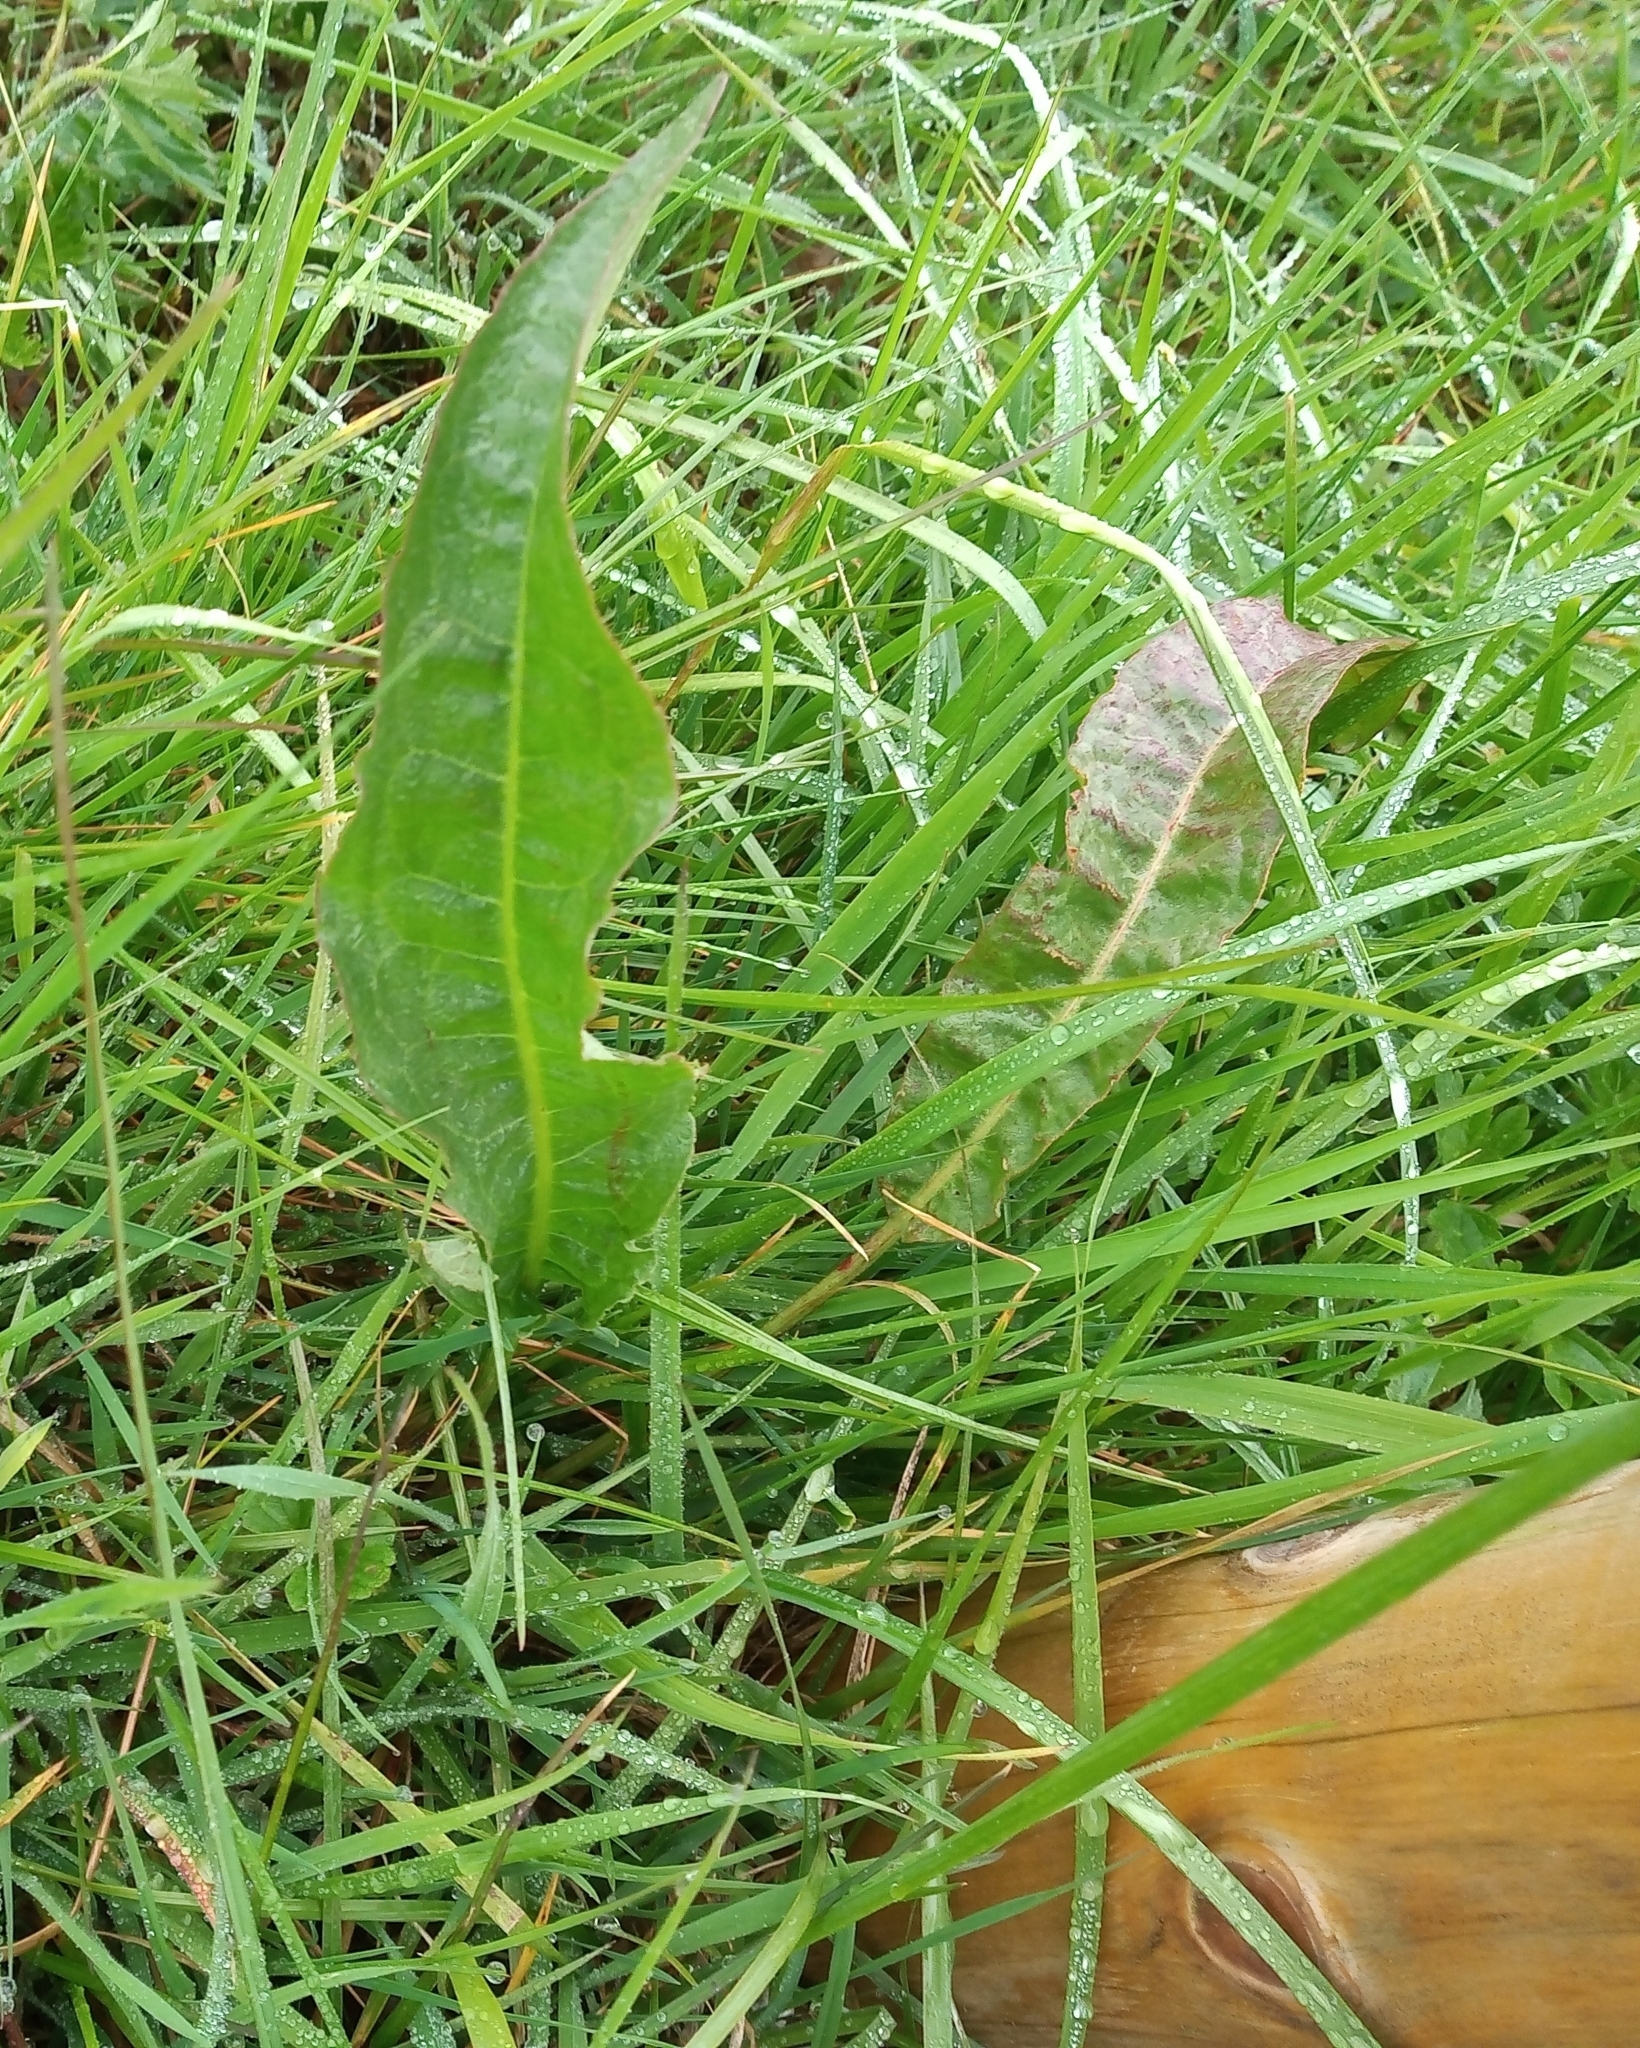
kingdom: Plantae
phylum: Tracheophyta
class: Magnoliopsida
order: Caryophyllales
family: Polygonaceae
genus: Rumex
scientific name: Rumex crispus
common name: Curled dock
